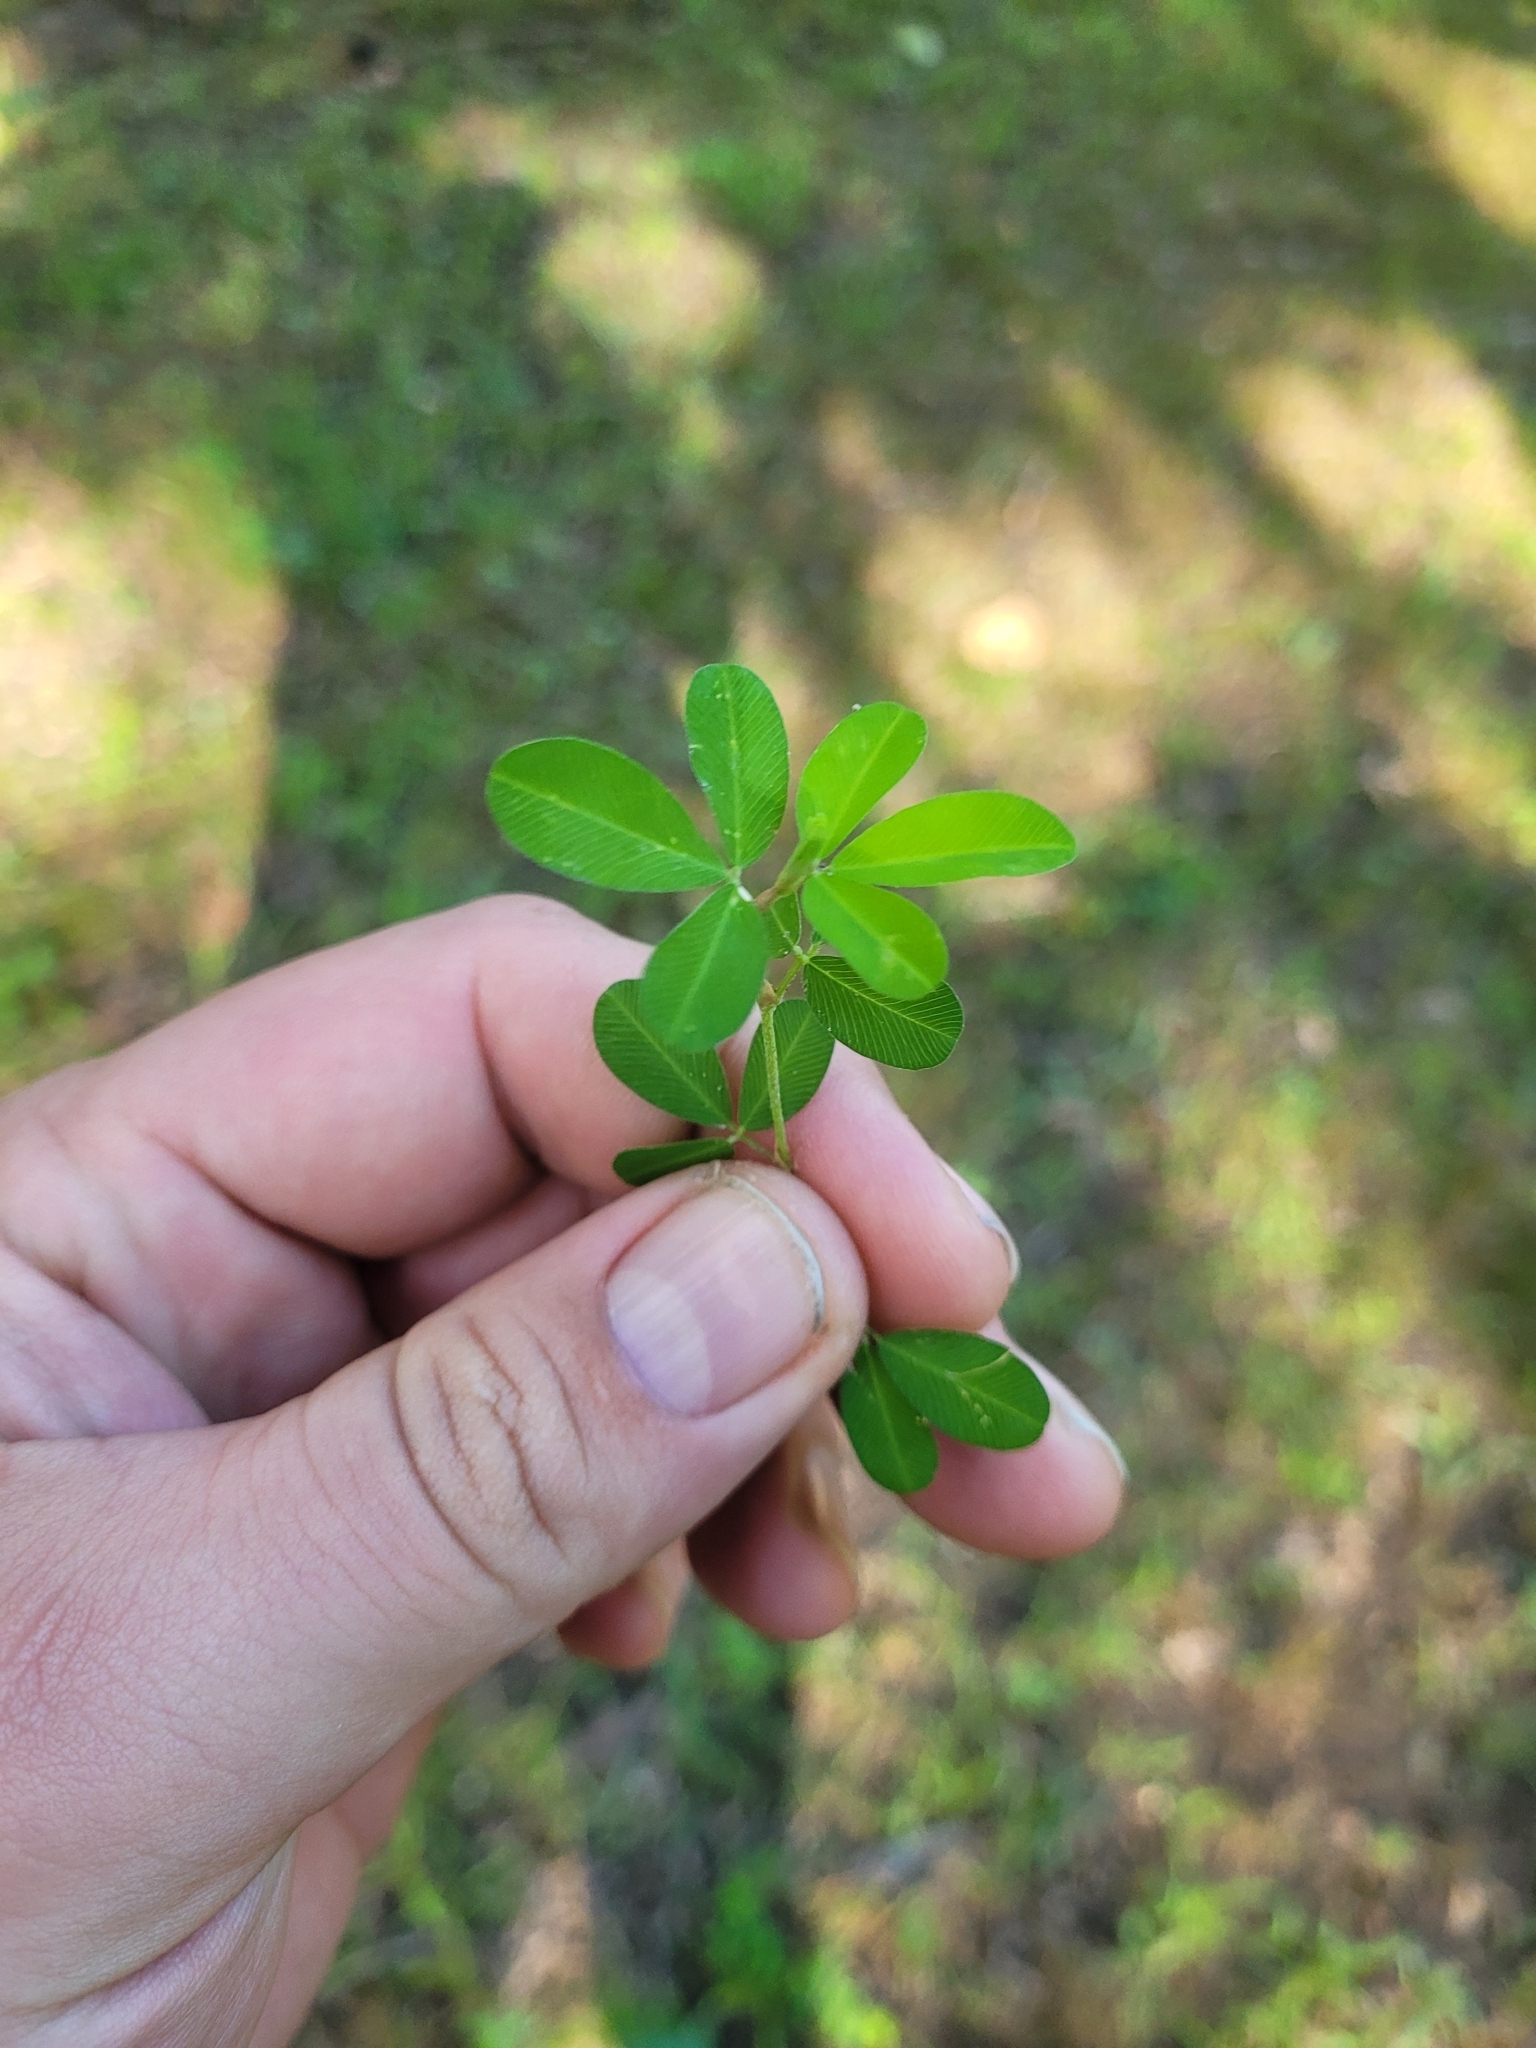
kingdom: Plantae
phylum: Tracheophyta
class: Magnoliopsida
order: Fabales
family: Fabaceae
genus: Kummerowia
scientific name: Kummerowia striata
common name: Japanese clover
